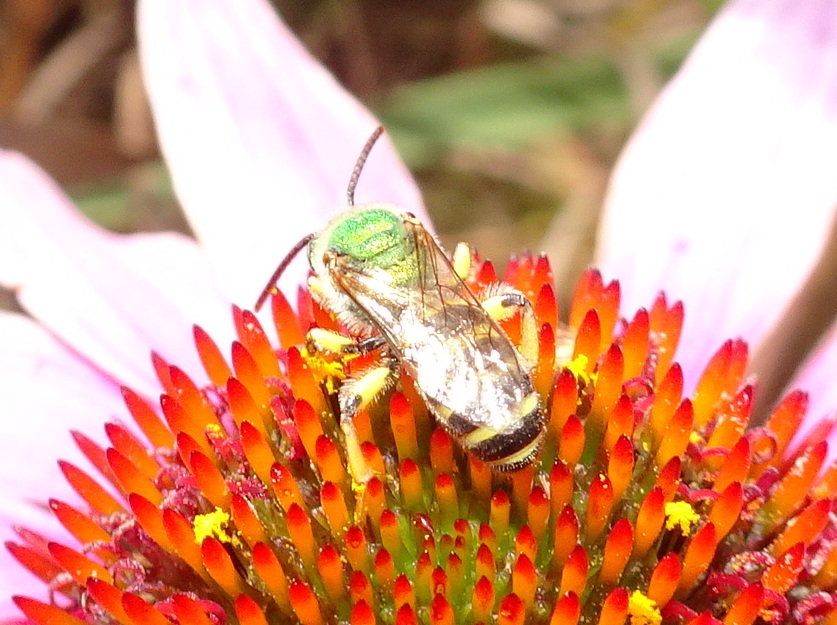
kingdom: Animalia
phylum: Arthropoda
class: Insecta
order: Hymenoptera
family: Halictidae
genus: Agapostemon
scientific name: Agapostemon virescens
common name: Bicolored striped sweat bee
